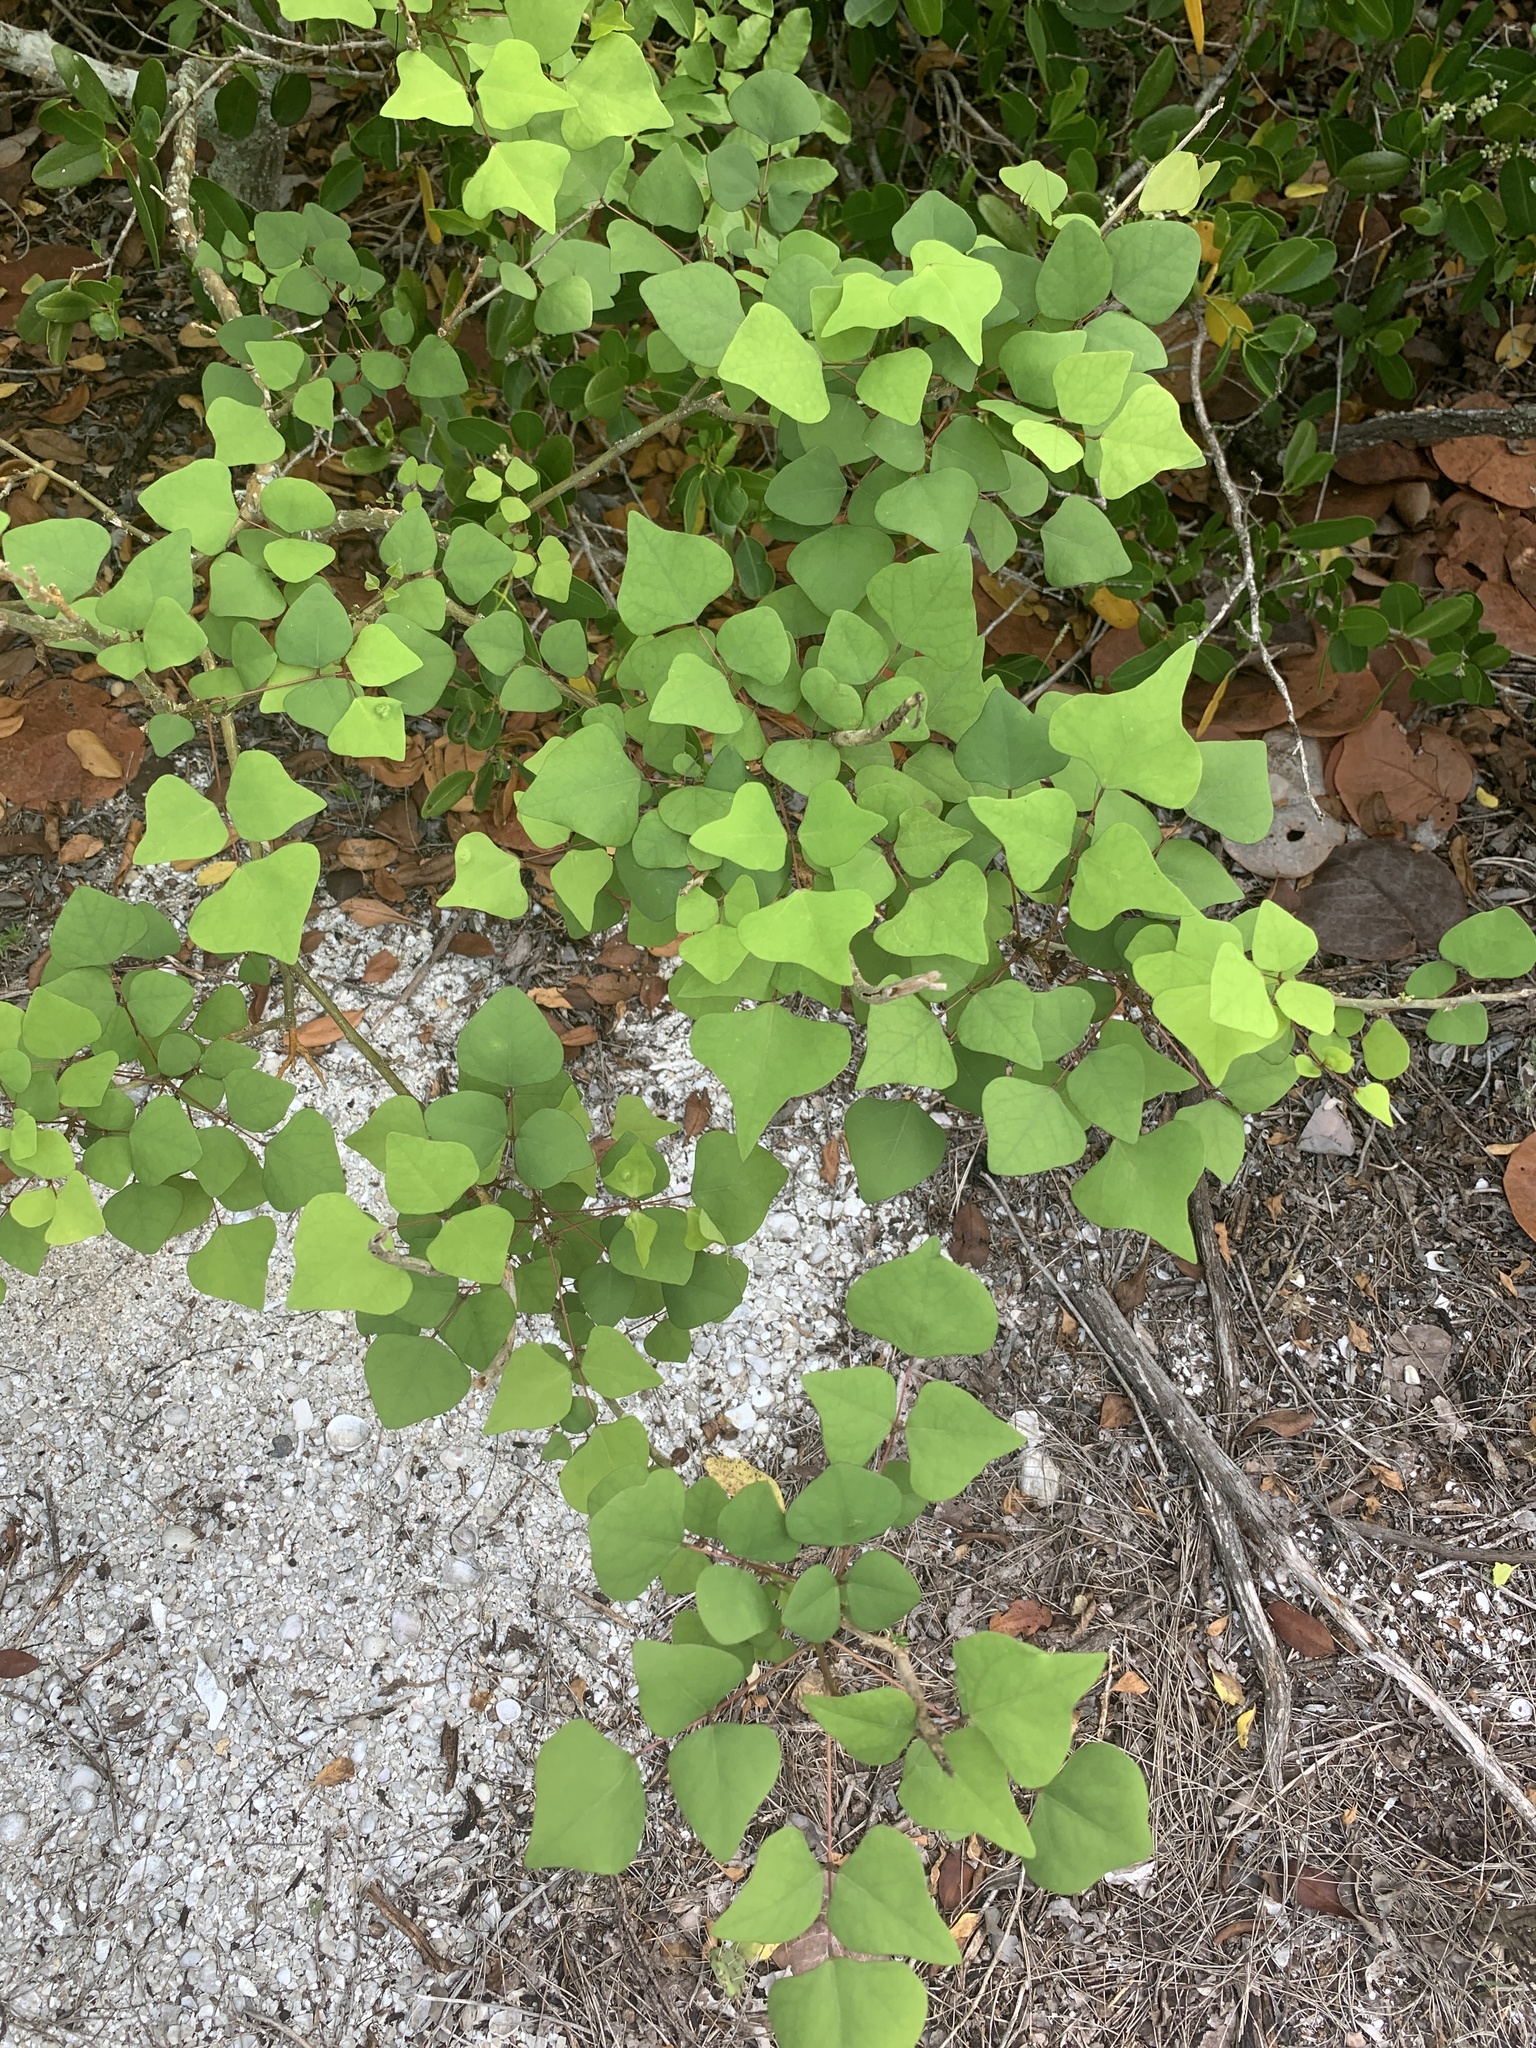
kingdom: Plantae
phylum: Tracheophyta
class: Magnoliopsida
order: Fabales
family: Fabaceae
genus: Erythrina
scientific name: Erythrina herbacea
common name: Coral-bean
